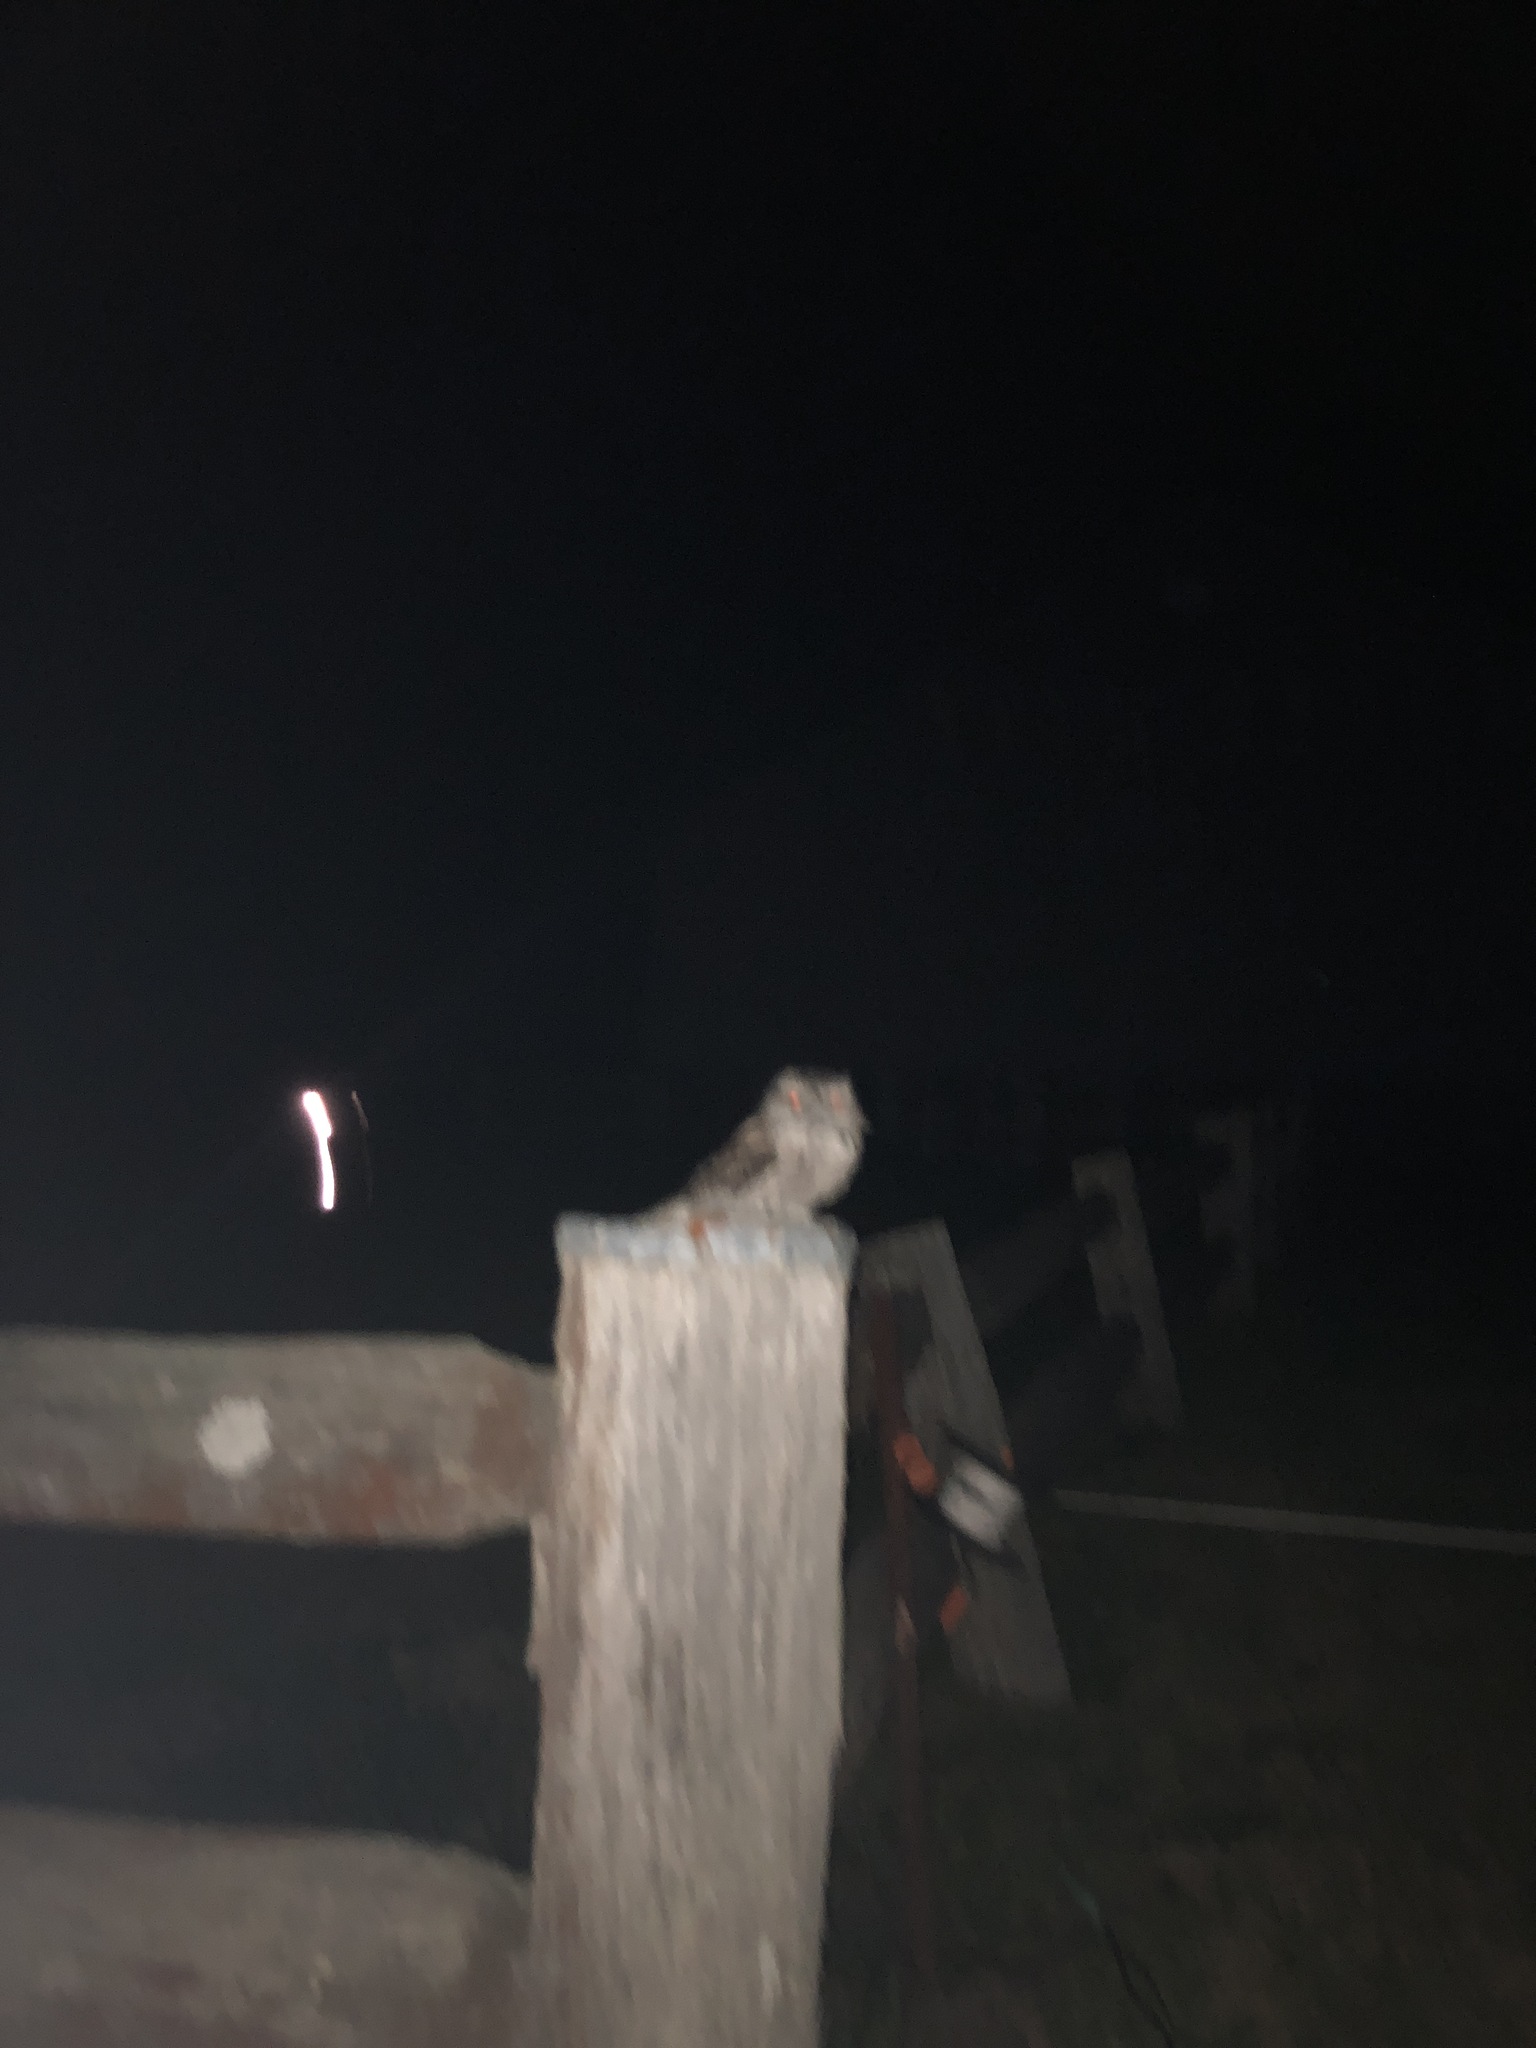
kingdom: Animalia
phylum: Chordata
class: Aves
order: Caprimulgiformes
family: Podargidae
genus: Podargus
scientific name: Podargus strigoides
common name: Tawny frogmouth
